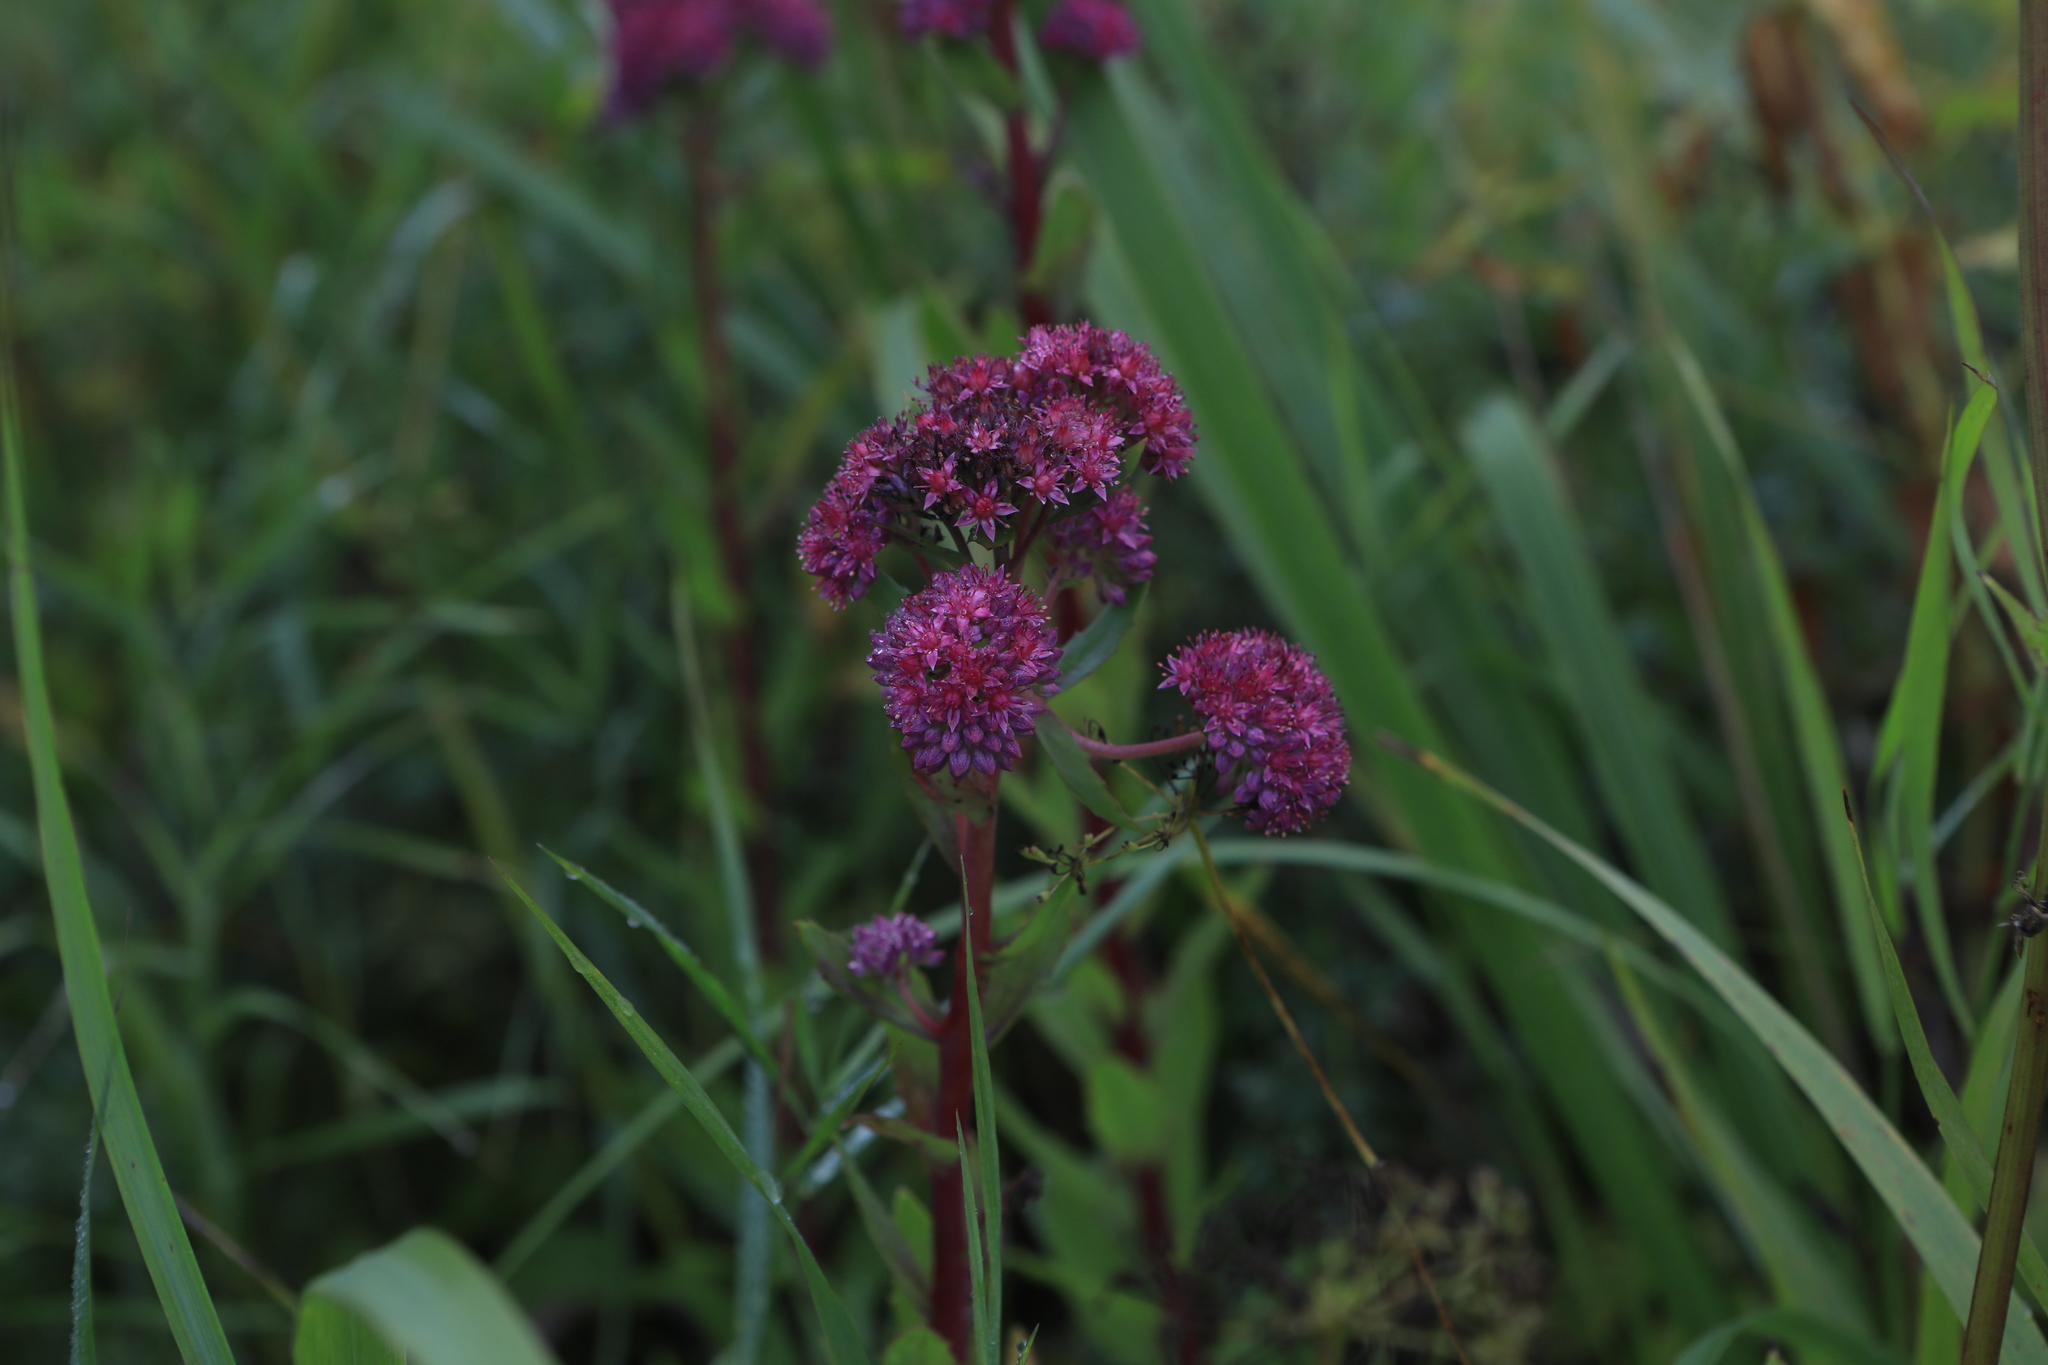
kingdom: Plantae
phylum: Tracheophyta
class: Magnoliopsida
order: Saxifragales
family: Crassulaceae
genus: Hylotelephium
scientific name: Hylotelephium telephium
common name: Live-forever
